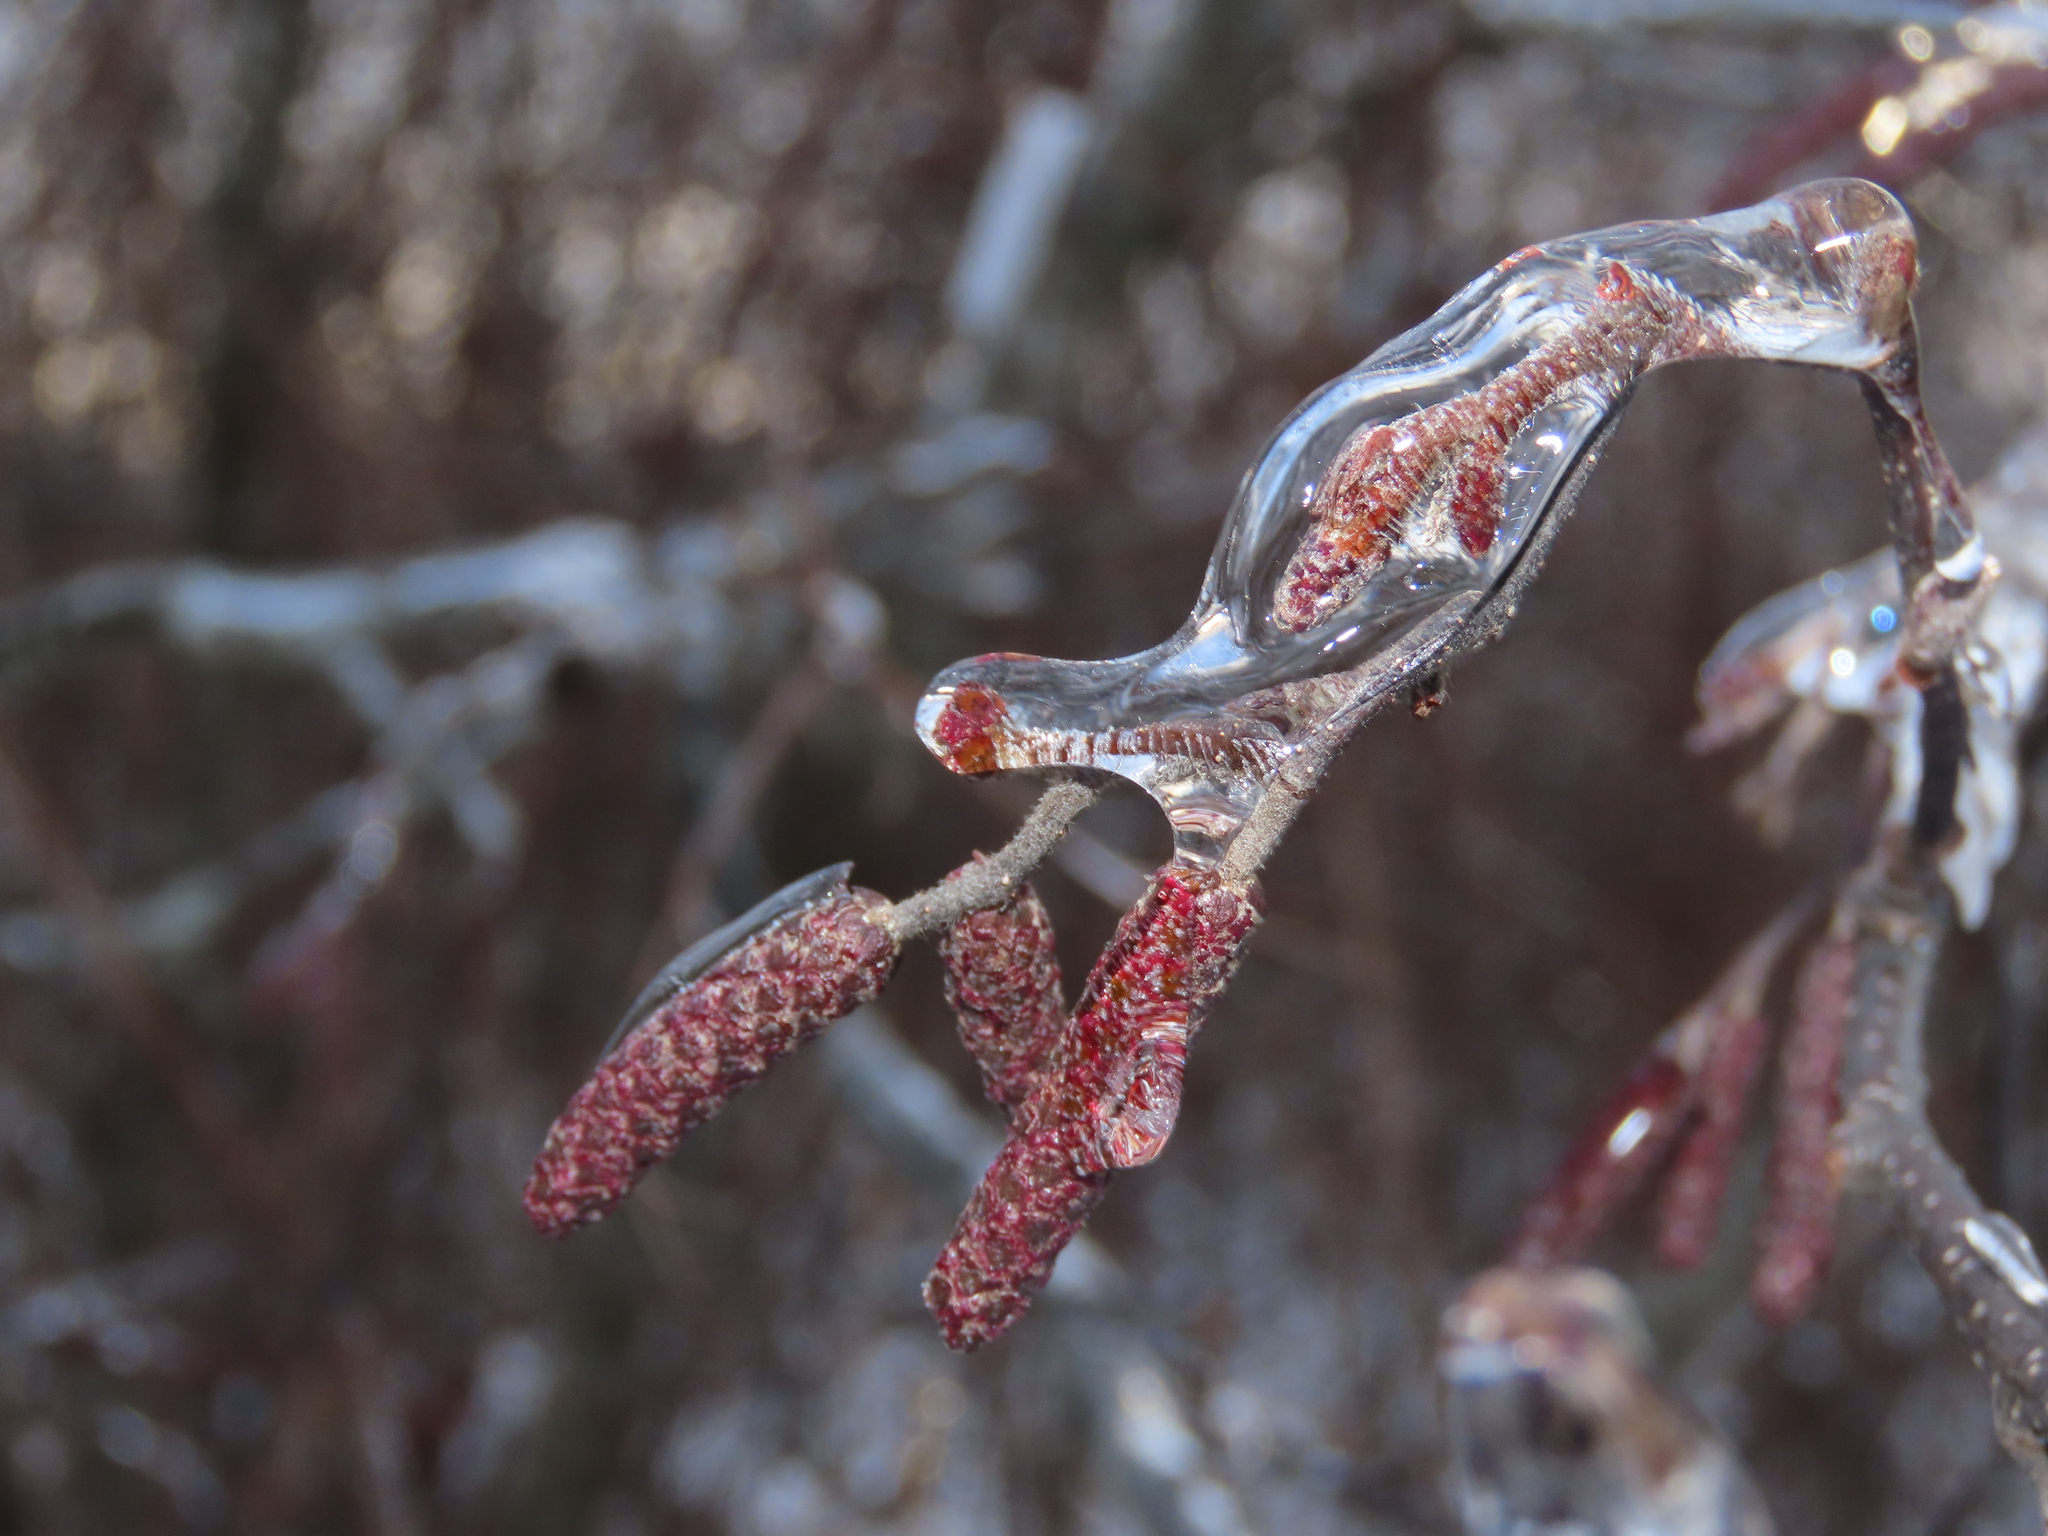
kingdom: Plantae
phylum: Tracheophyta
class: Magnoliopsida
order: Fagales
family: Betulaceae
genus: Alnus
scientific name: Alnus incana
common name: Grey alder
